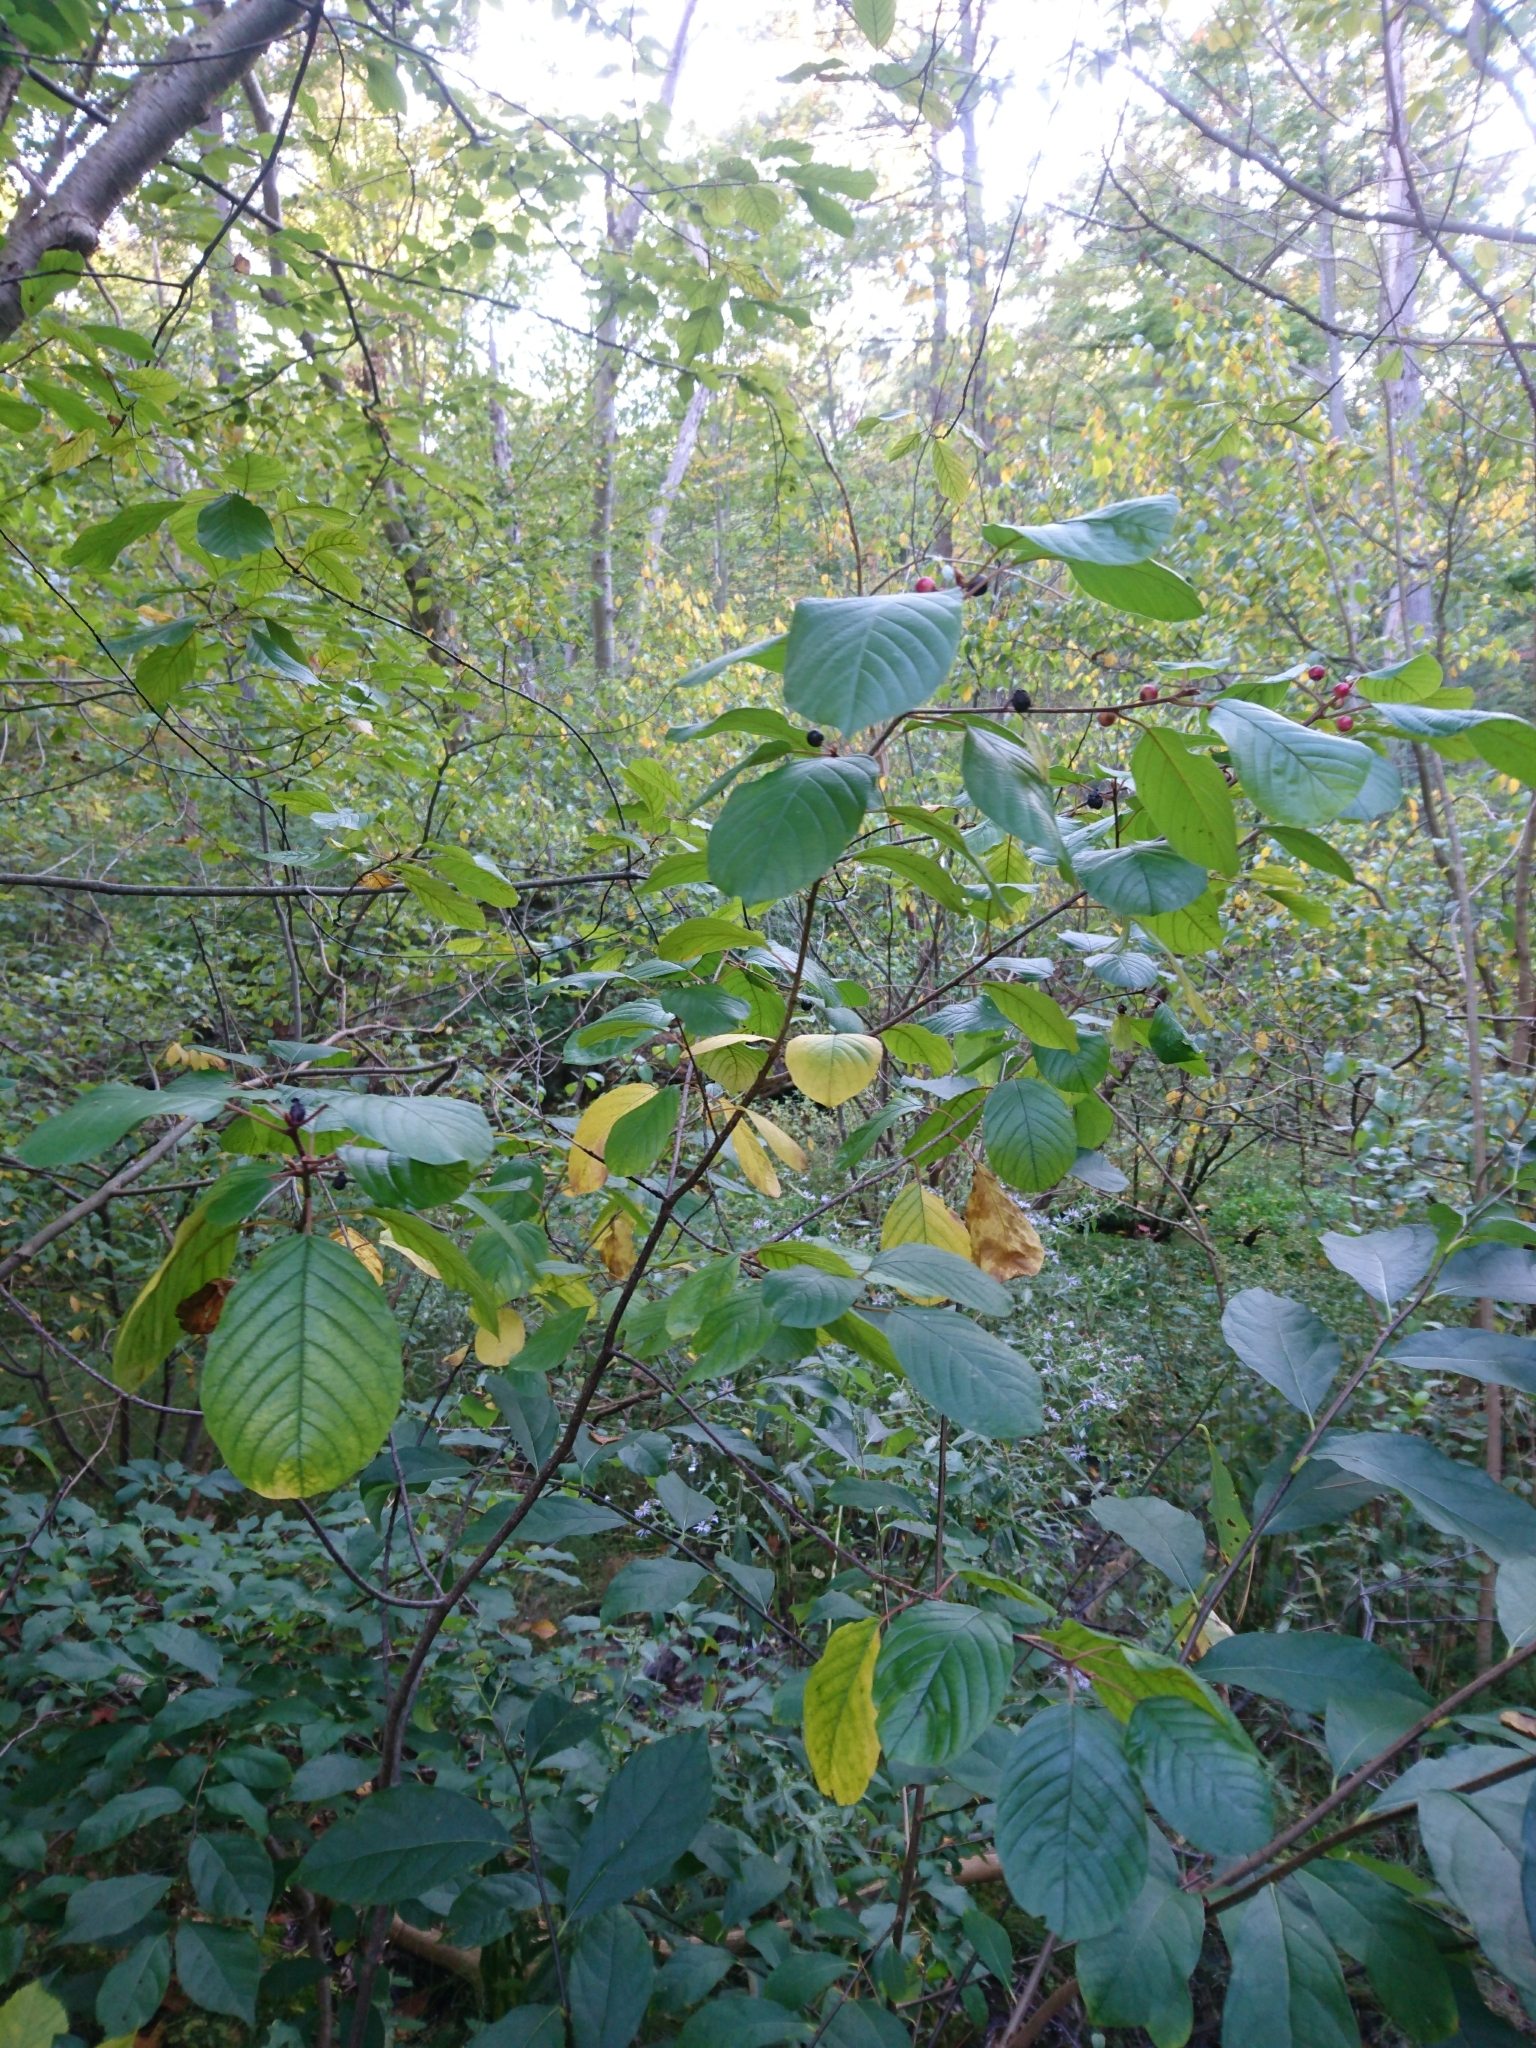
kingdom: Plantae
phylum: Tracheophyta
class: Magnoliopsida
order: Rosales
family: Rhamnaceae
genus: Frangula
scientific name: Frangula alnus
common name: Alder buckthorn
